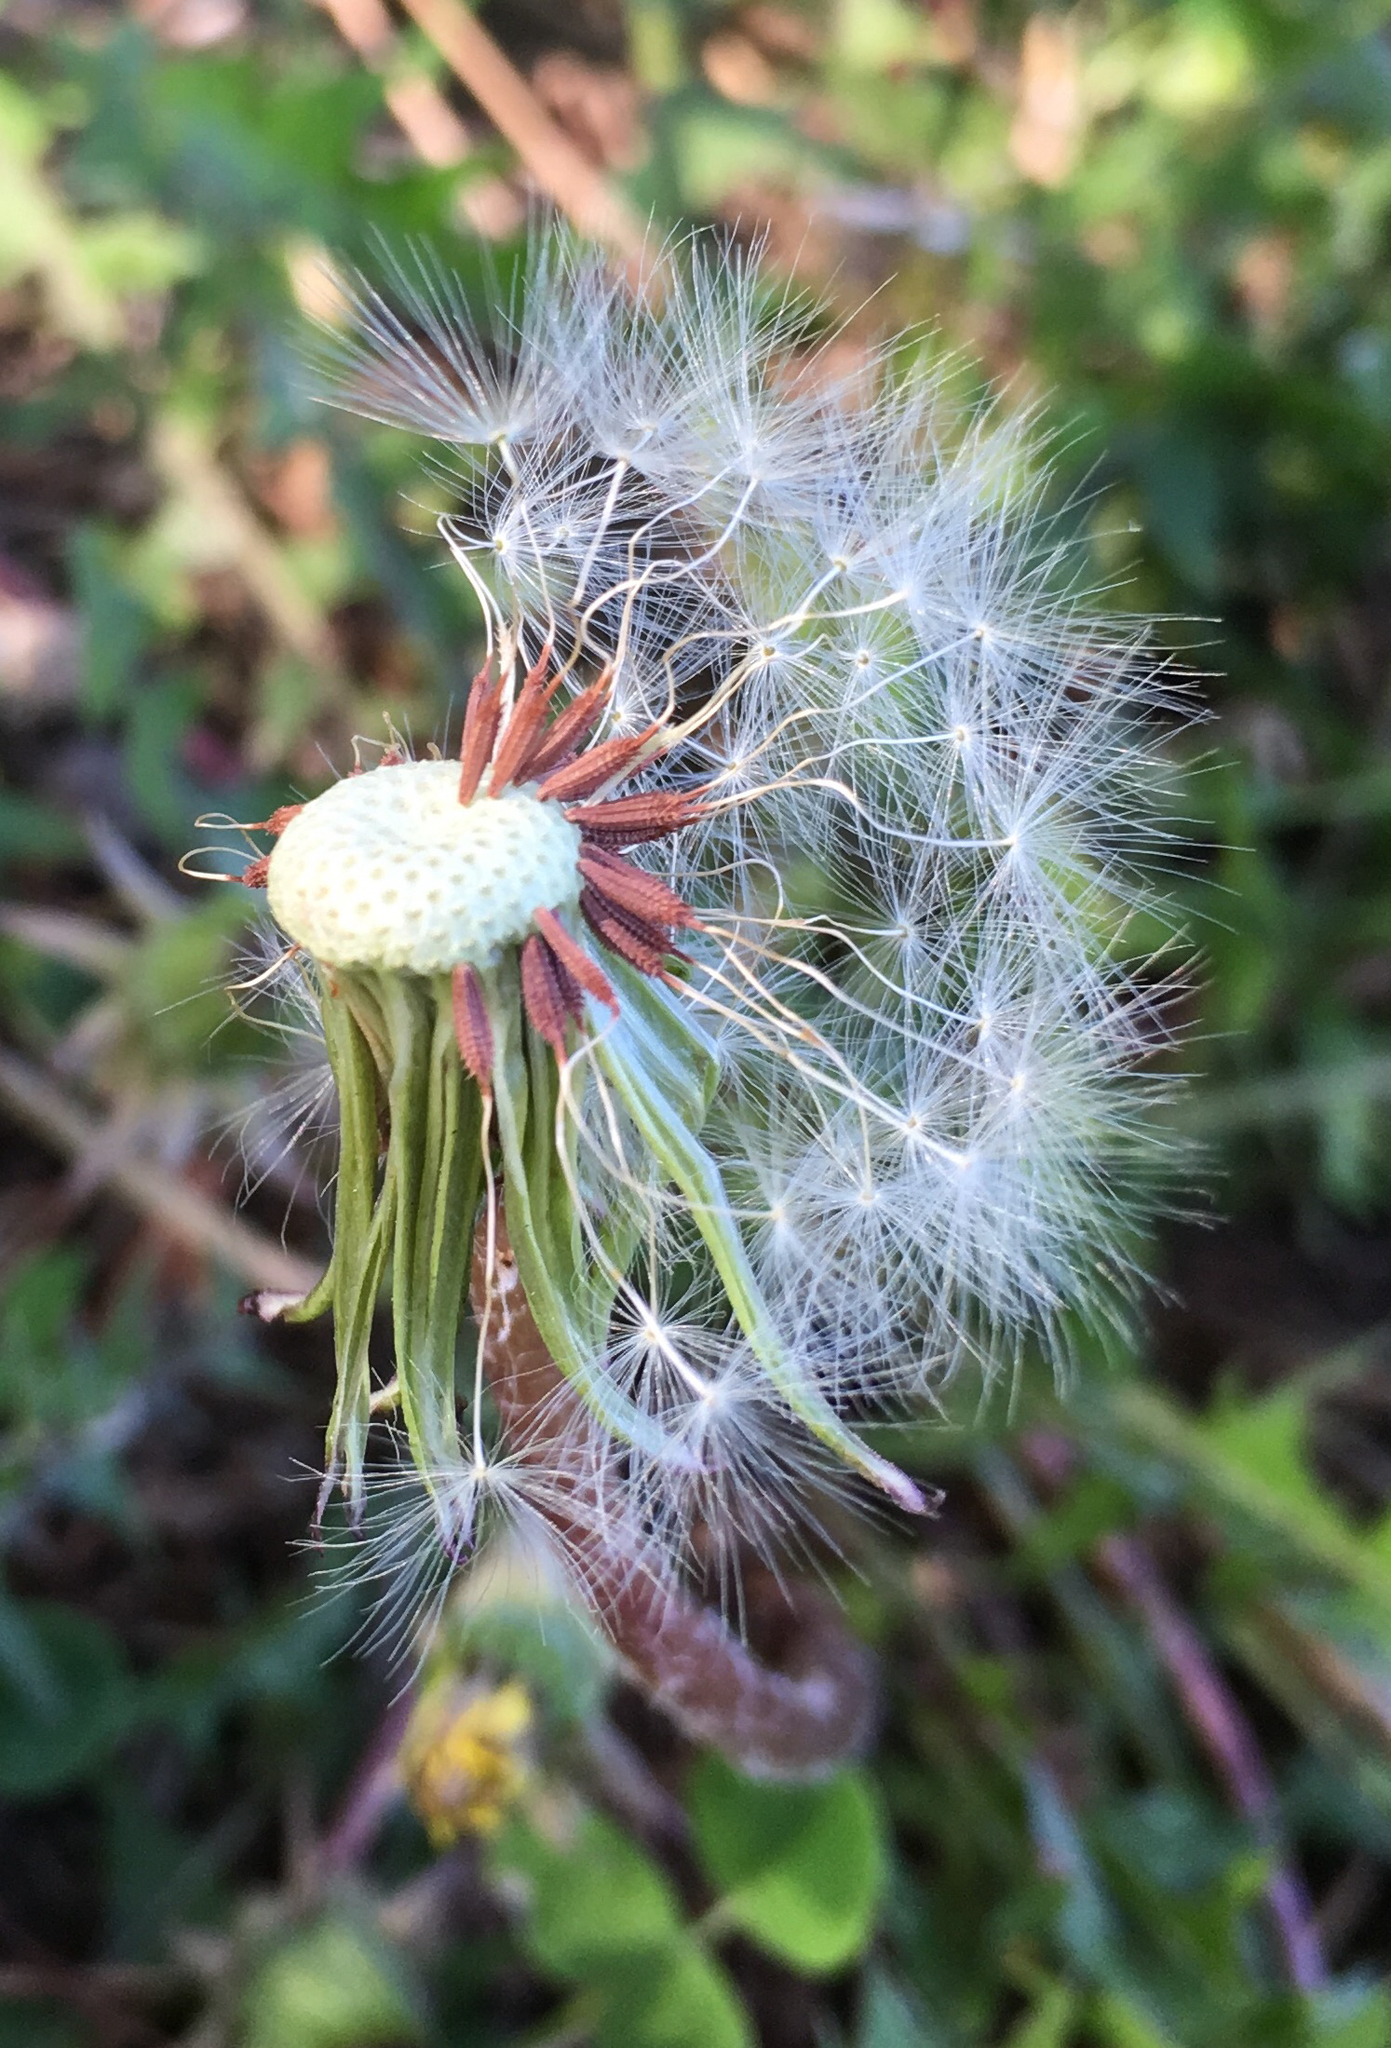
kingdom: Plantae
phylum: Tracheophyta
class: Magnoliopsida
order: Asterales
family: Asteraceae
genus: Taraxacum
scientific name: Taraxacum erythrospermum
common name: Rock dandelion
